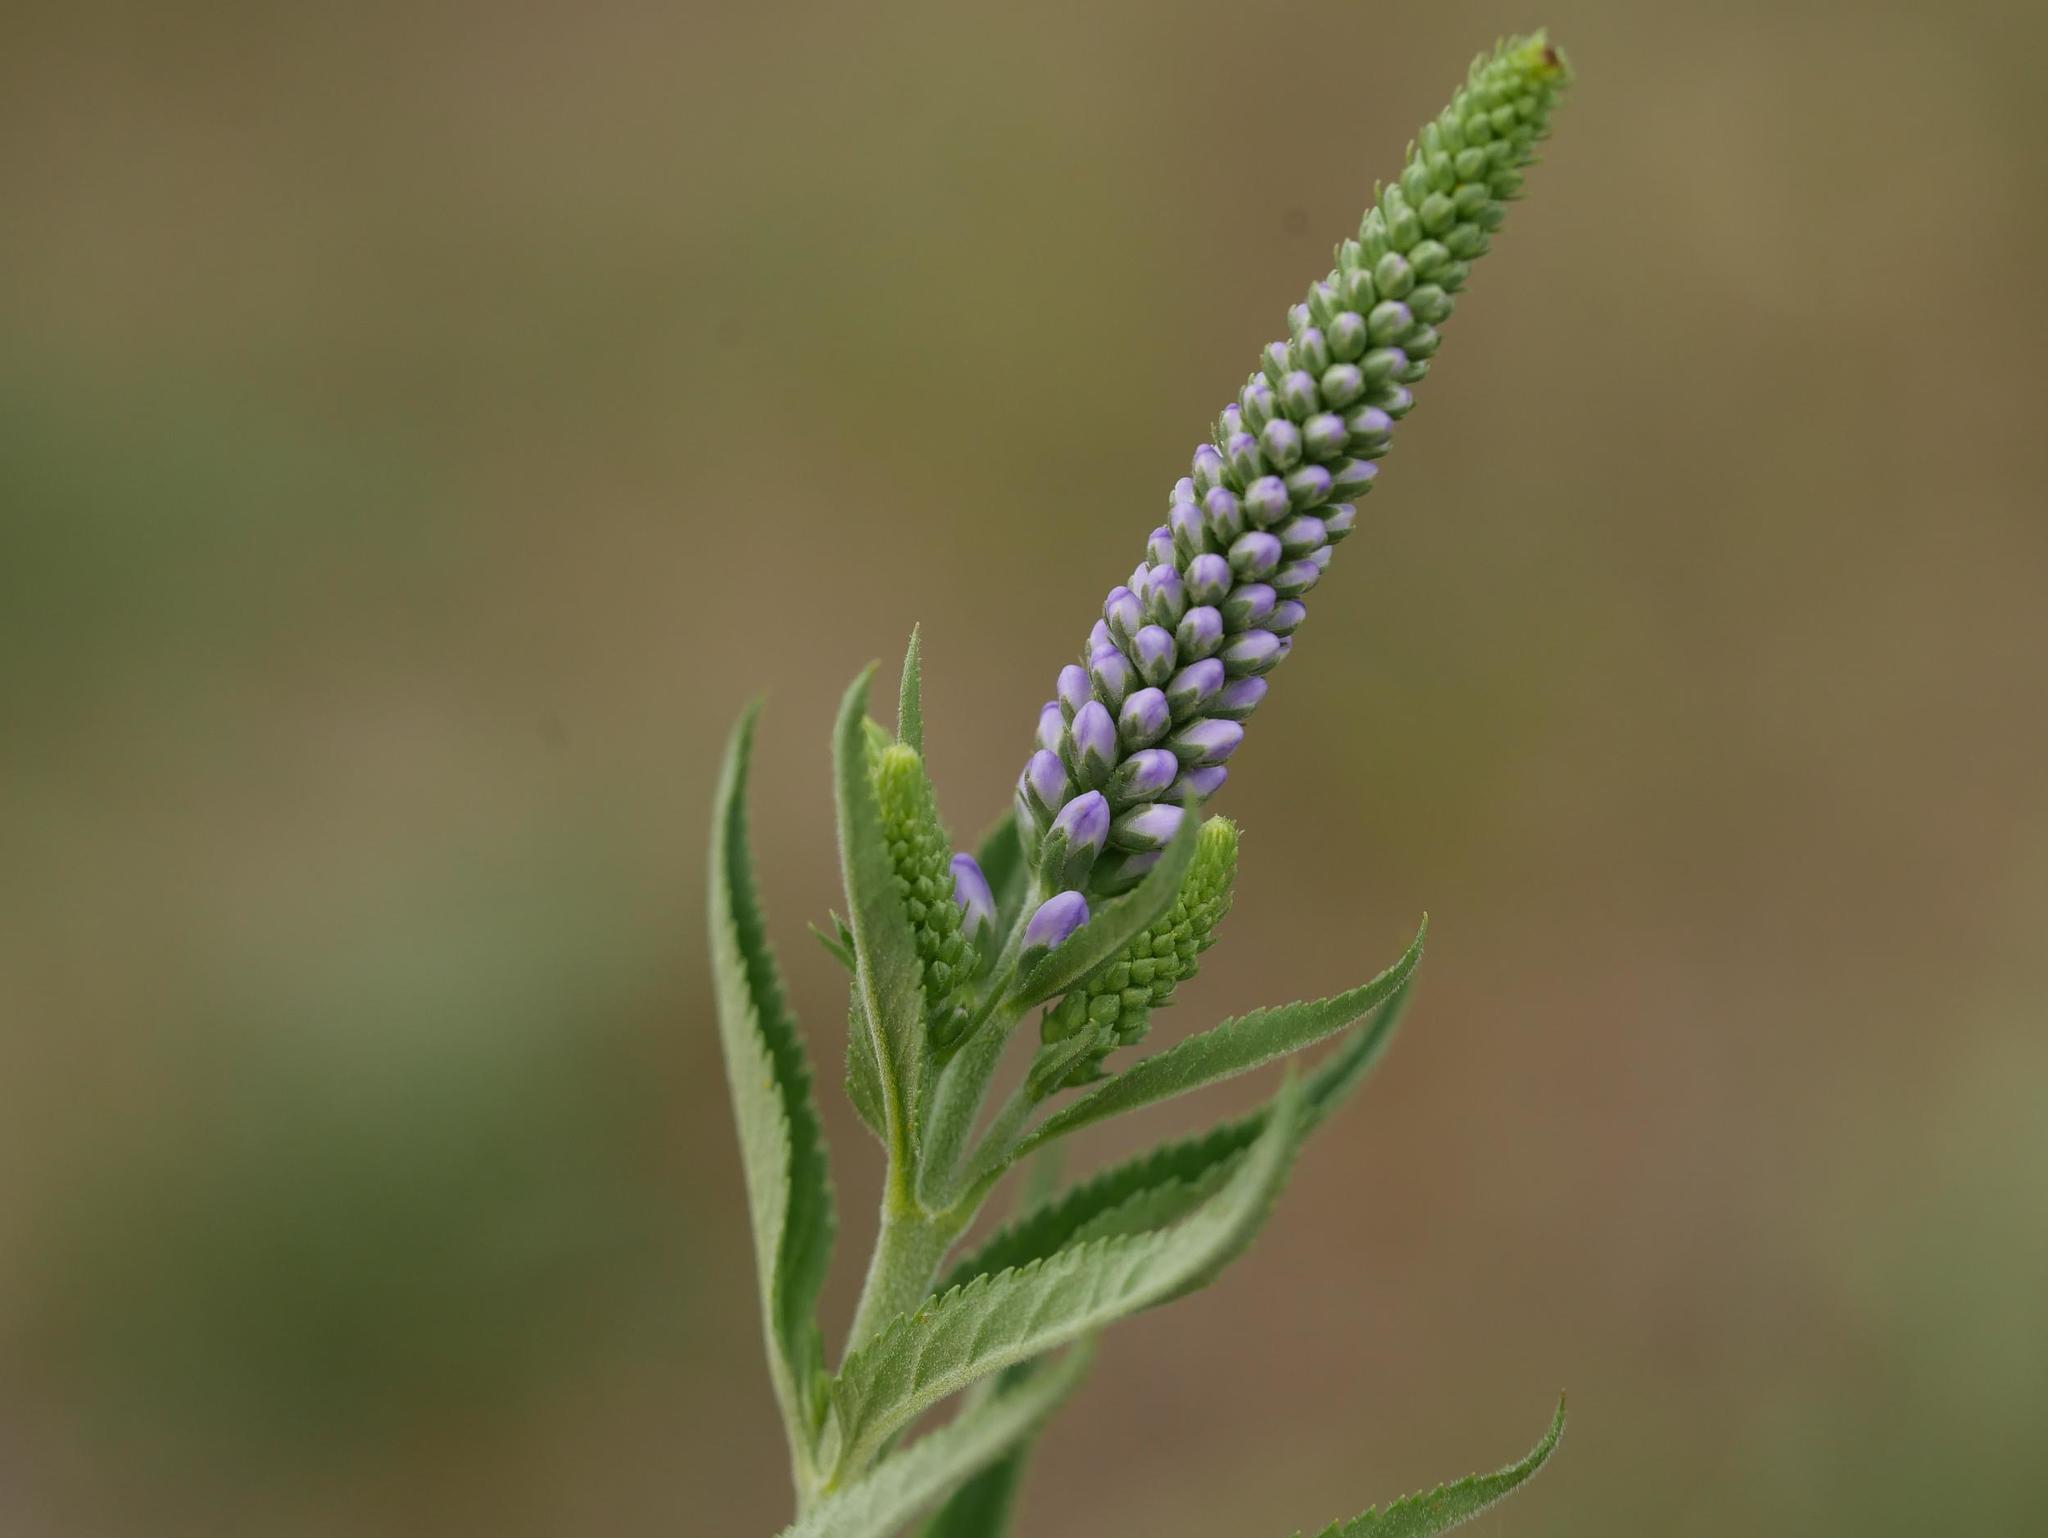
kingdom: Plantae
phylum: Tracheophyta
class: Magnoliopsida
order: Lamiales
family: Plantaginaceae
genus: Veronica
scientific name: Veronica longifolia
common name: Garden speedwell
